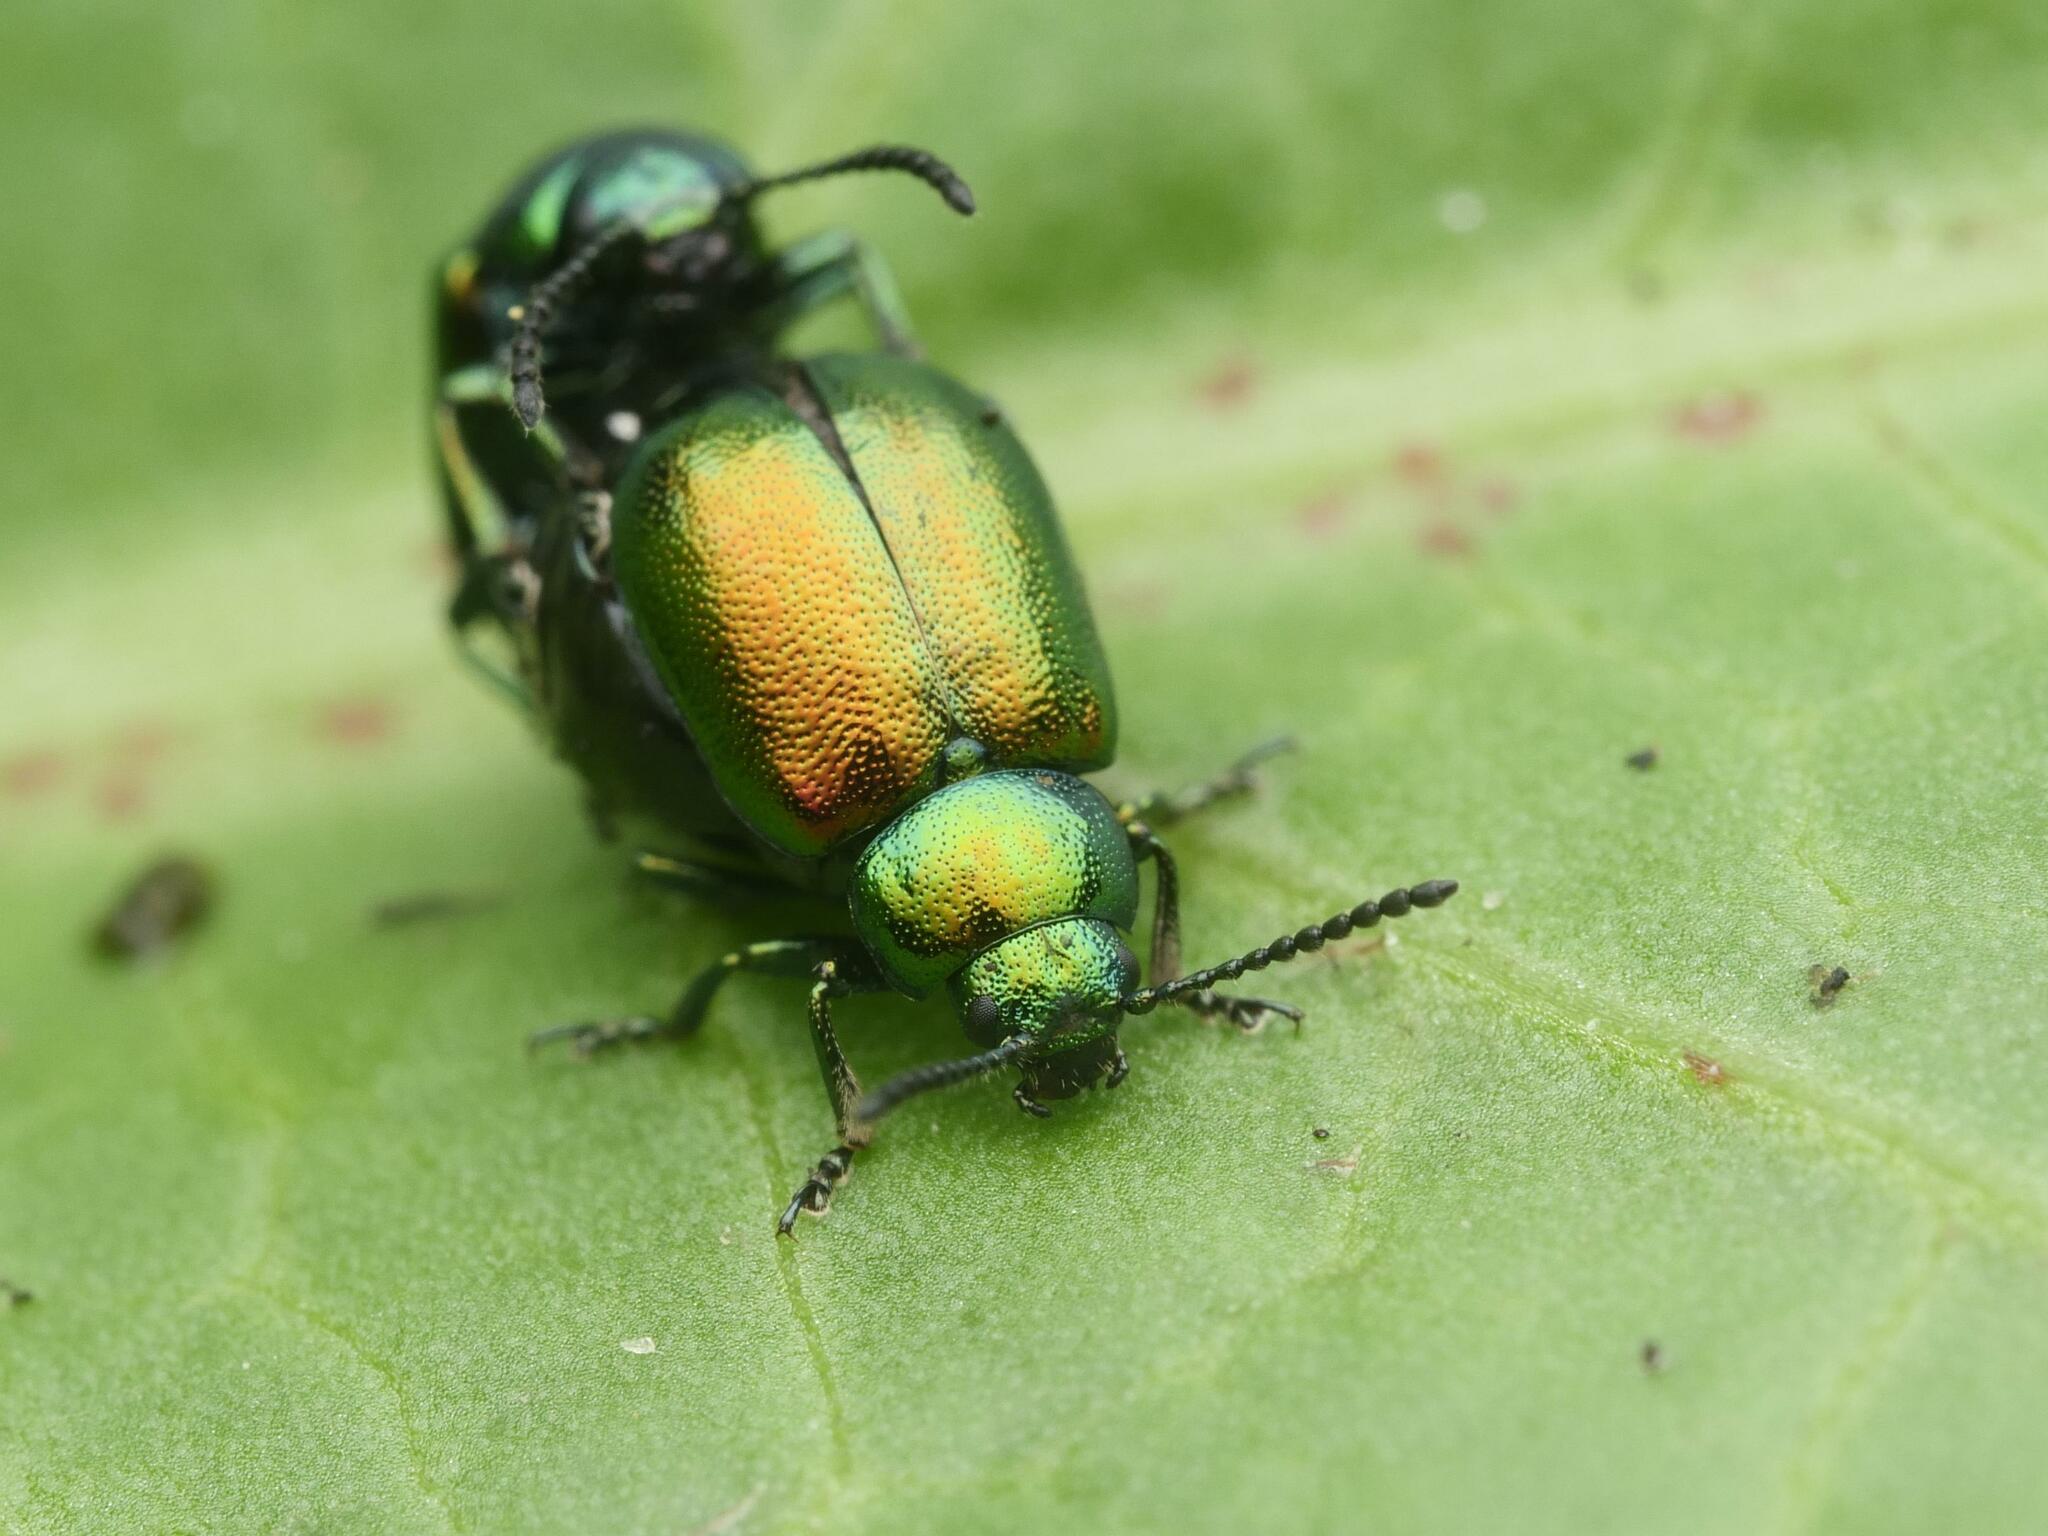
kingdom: Animalia
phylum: Arthropoda
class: Insecta
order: Coleoptera
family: Chrysomelidae
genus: Gastrophysa
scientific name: Gastrophysa viridula
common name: Green dock beetle
